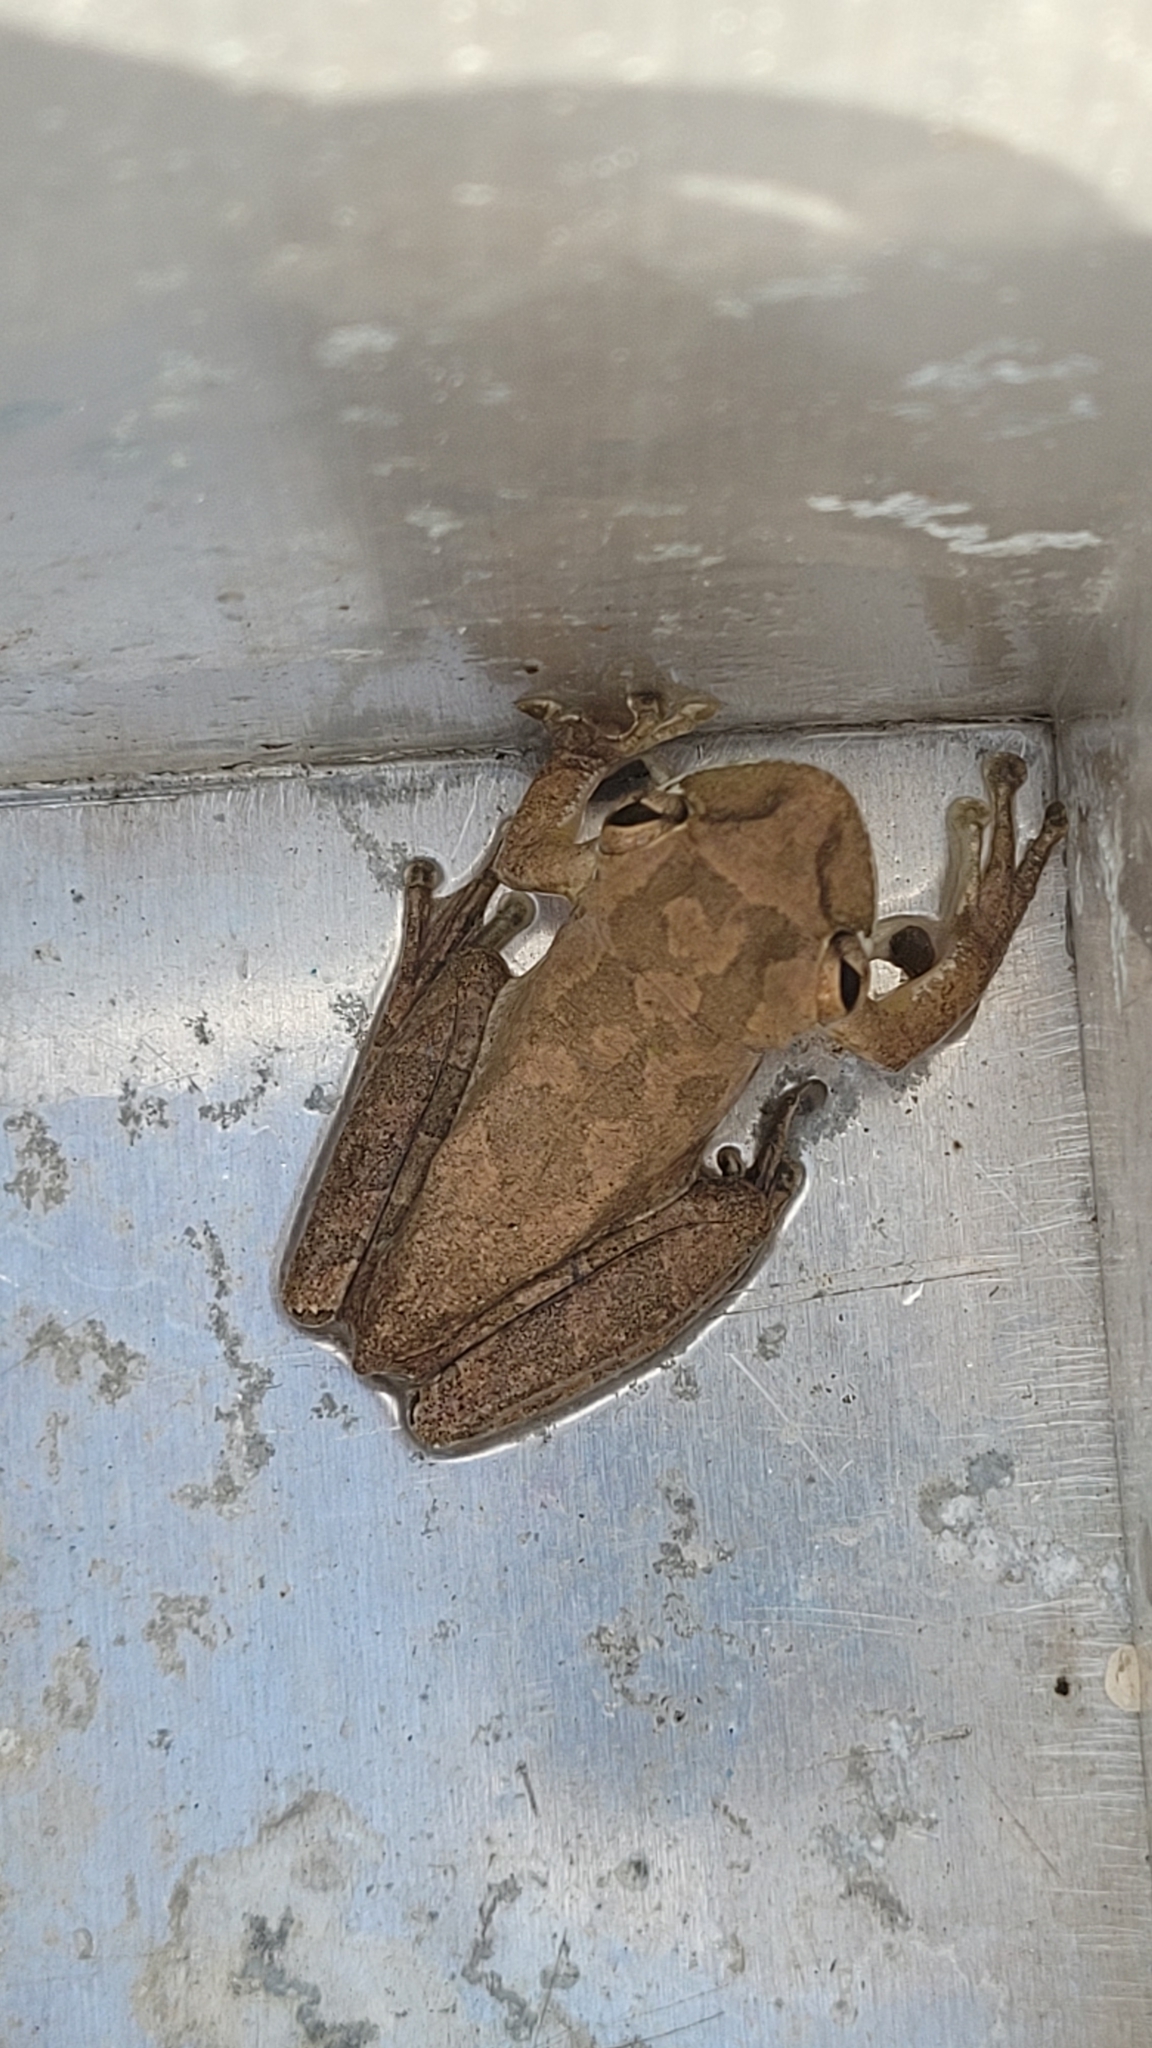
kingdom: Animalia
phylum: Chordata
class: Amphibia
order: Anura
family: Hylidae
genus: Osteopilus
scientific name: Osteopilus septentrionalis
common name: Cuban treefrog
